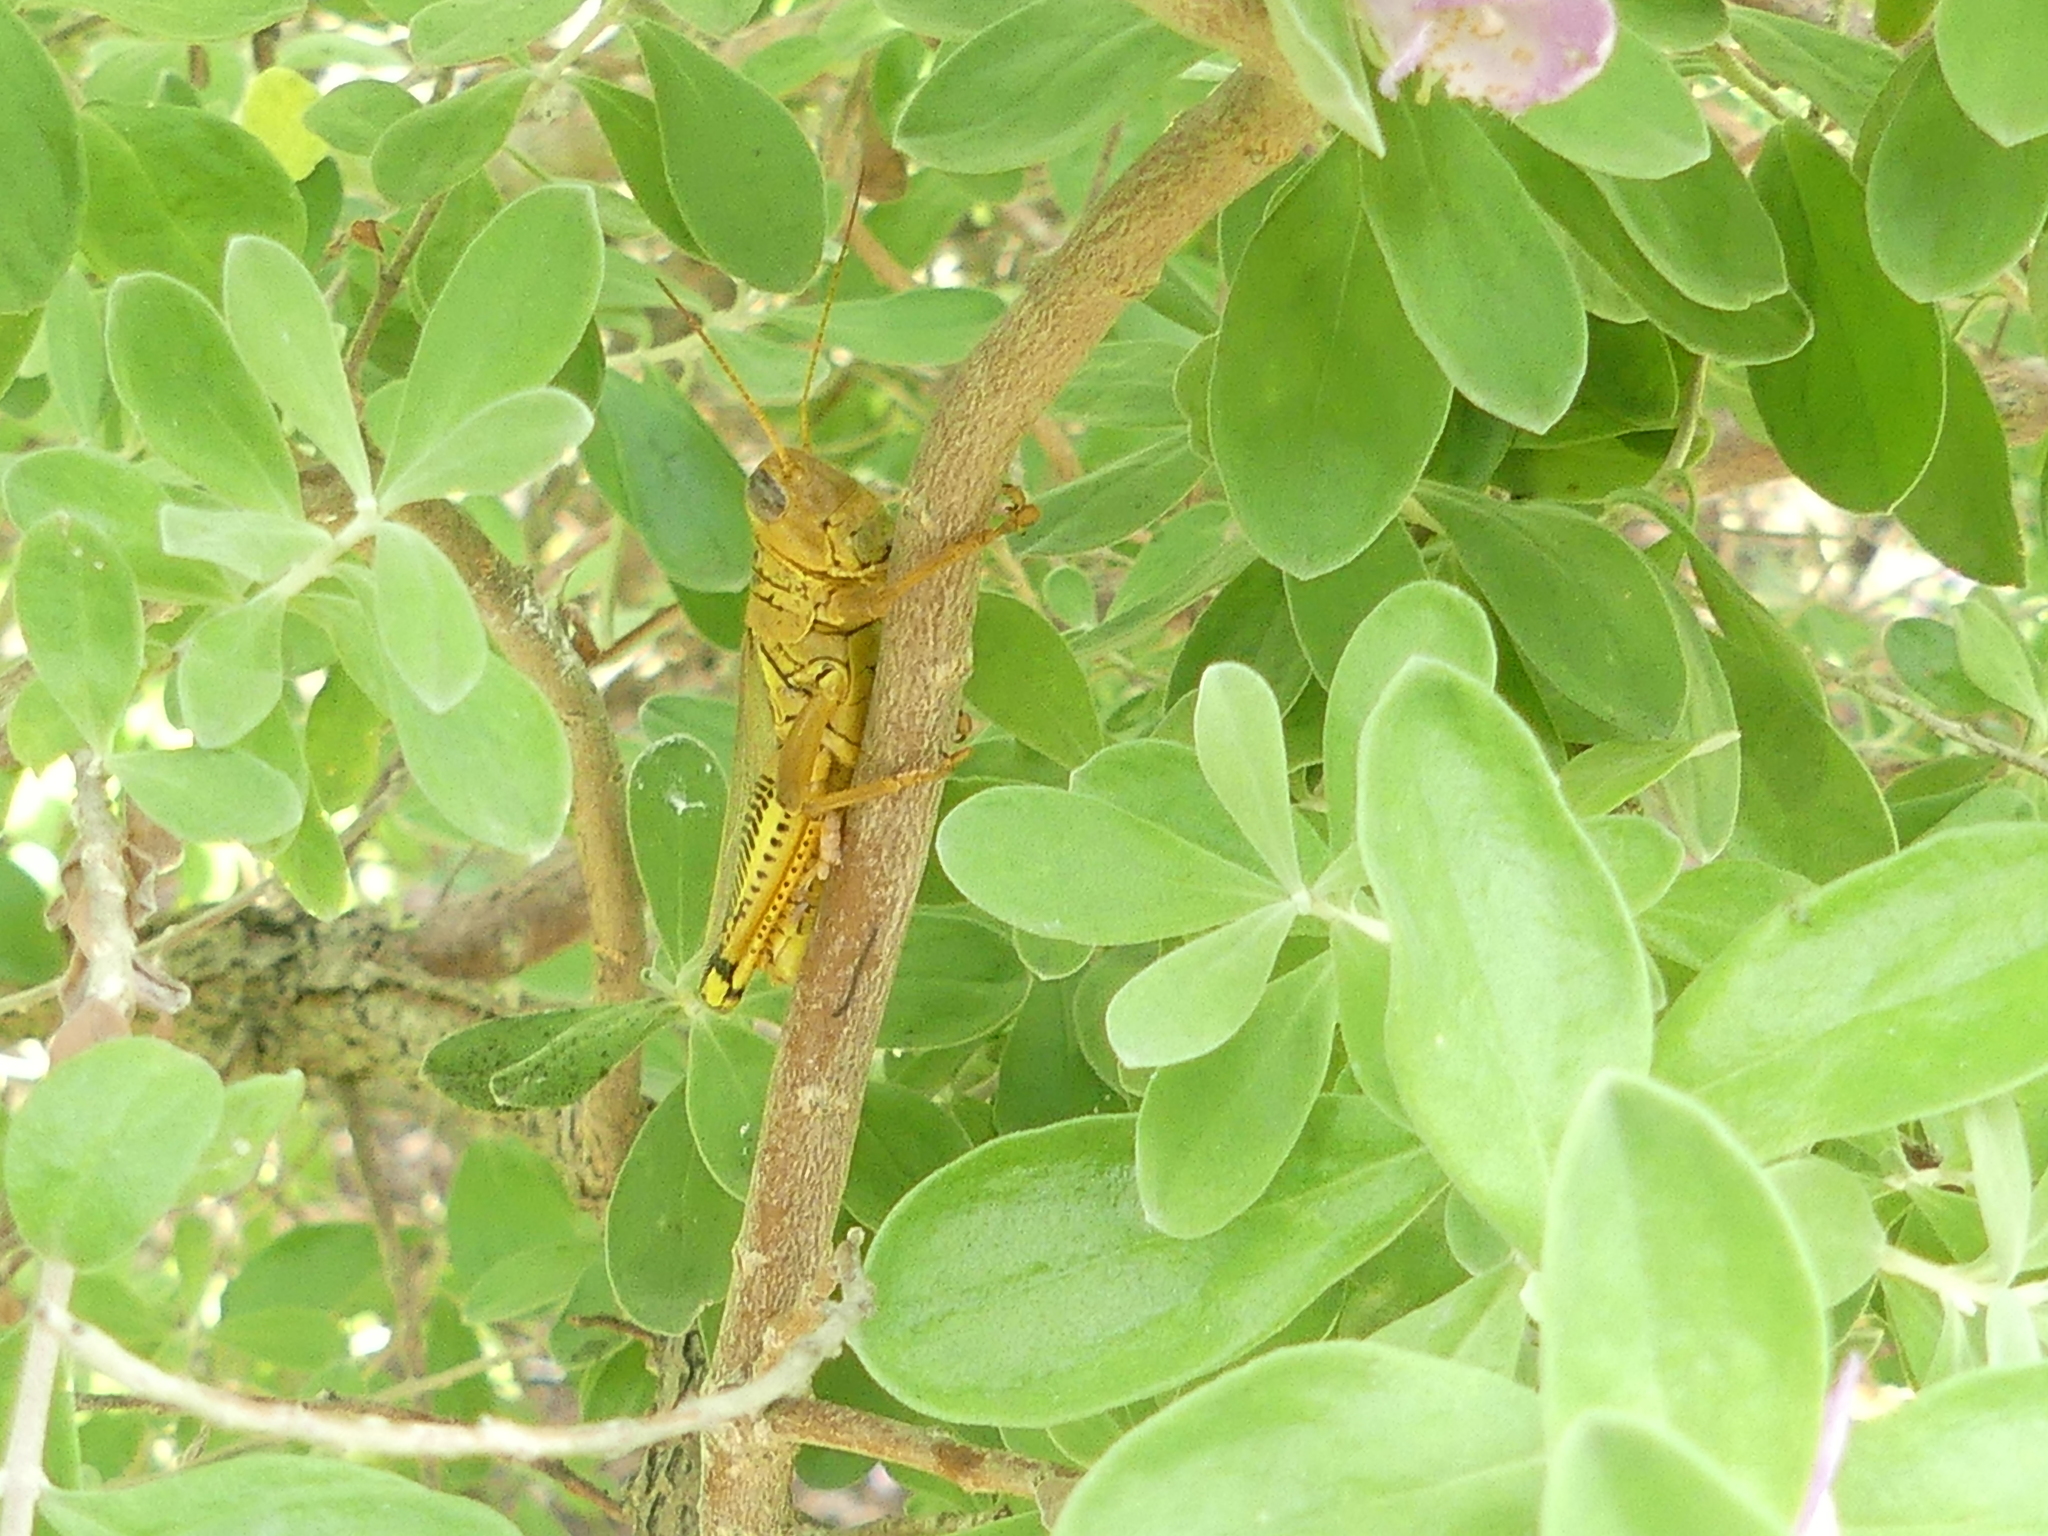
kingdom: Animalia
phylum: Arthropoda
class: Insecta
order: Orthoptera
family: Acrididae
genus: Melanoplus
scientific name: Melanoplus differentialis
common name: Differential grasshopper
